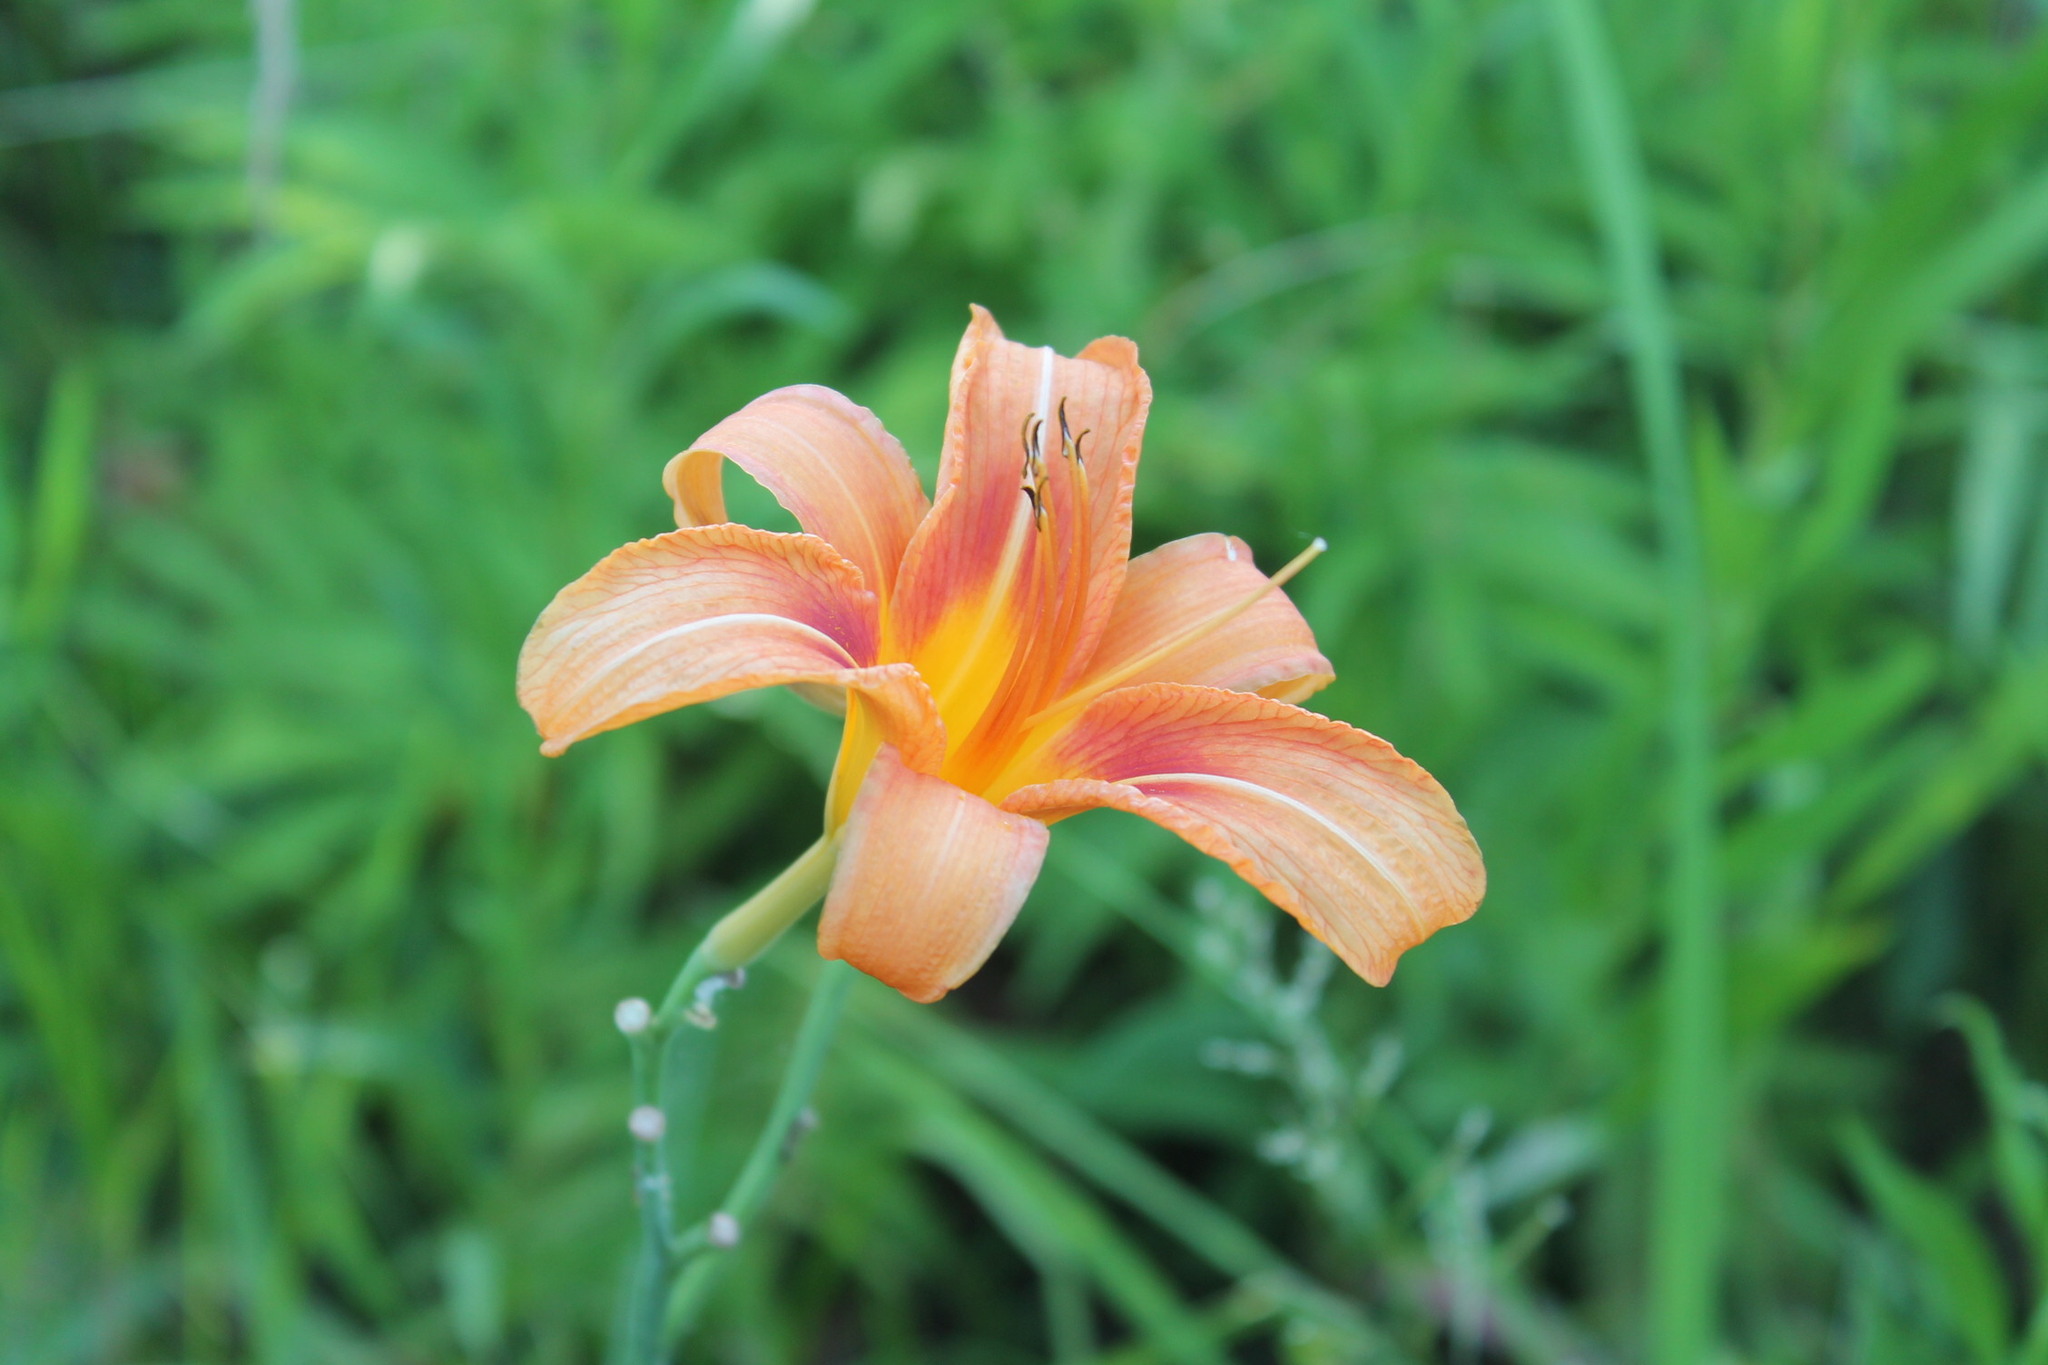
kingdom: Plantae
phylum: Tracheophyta
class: Liliopsida
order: Asparagales
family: Asphodelaceae
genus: Hemerocallis
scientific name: Hemerocallis fulva
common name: Orange day-lily
